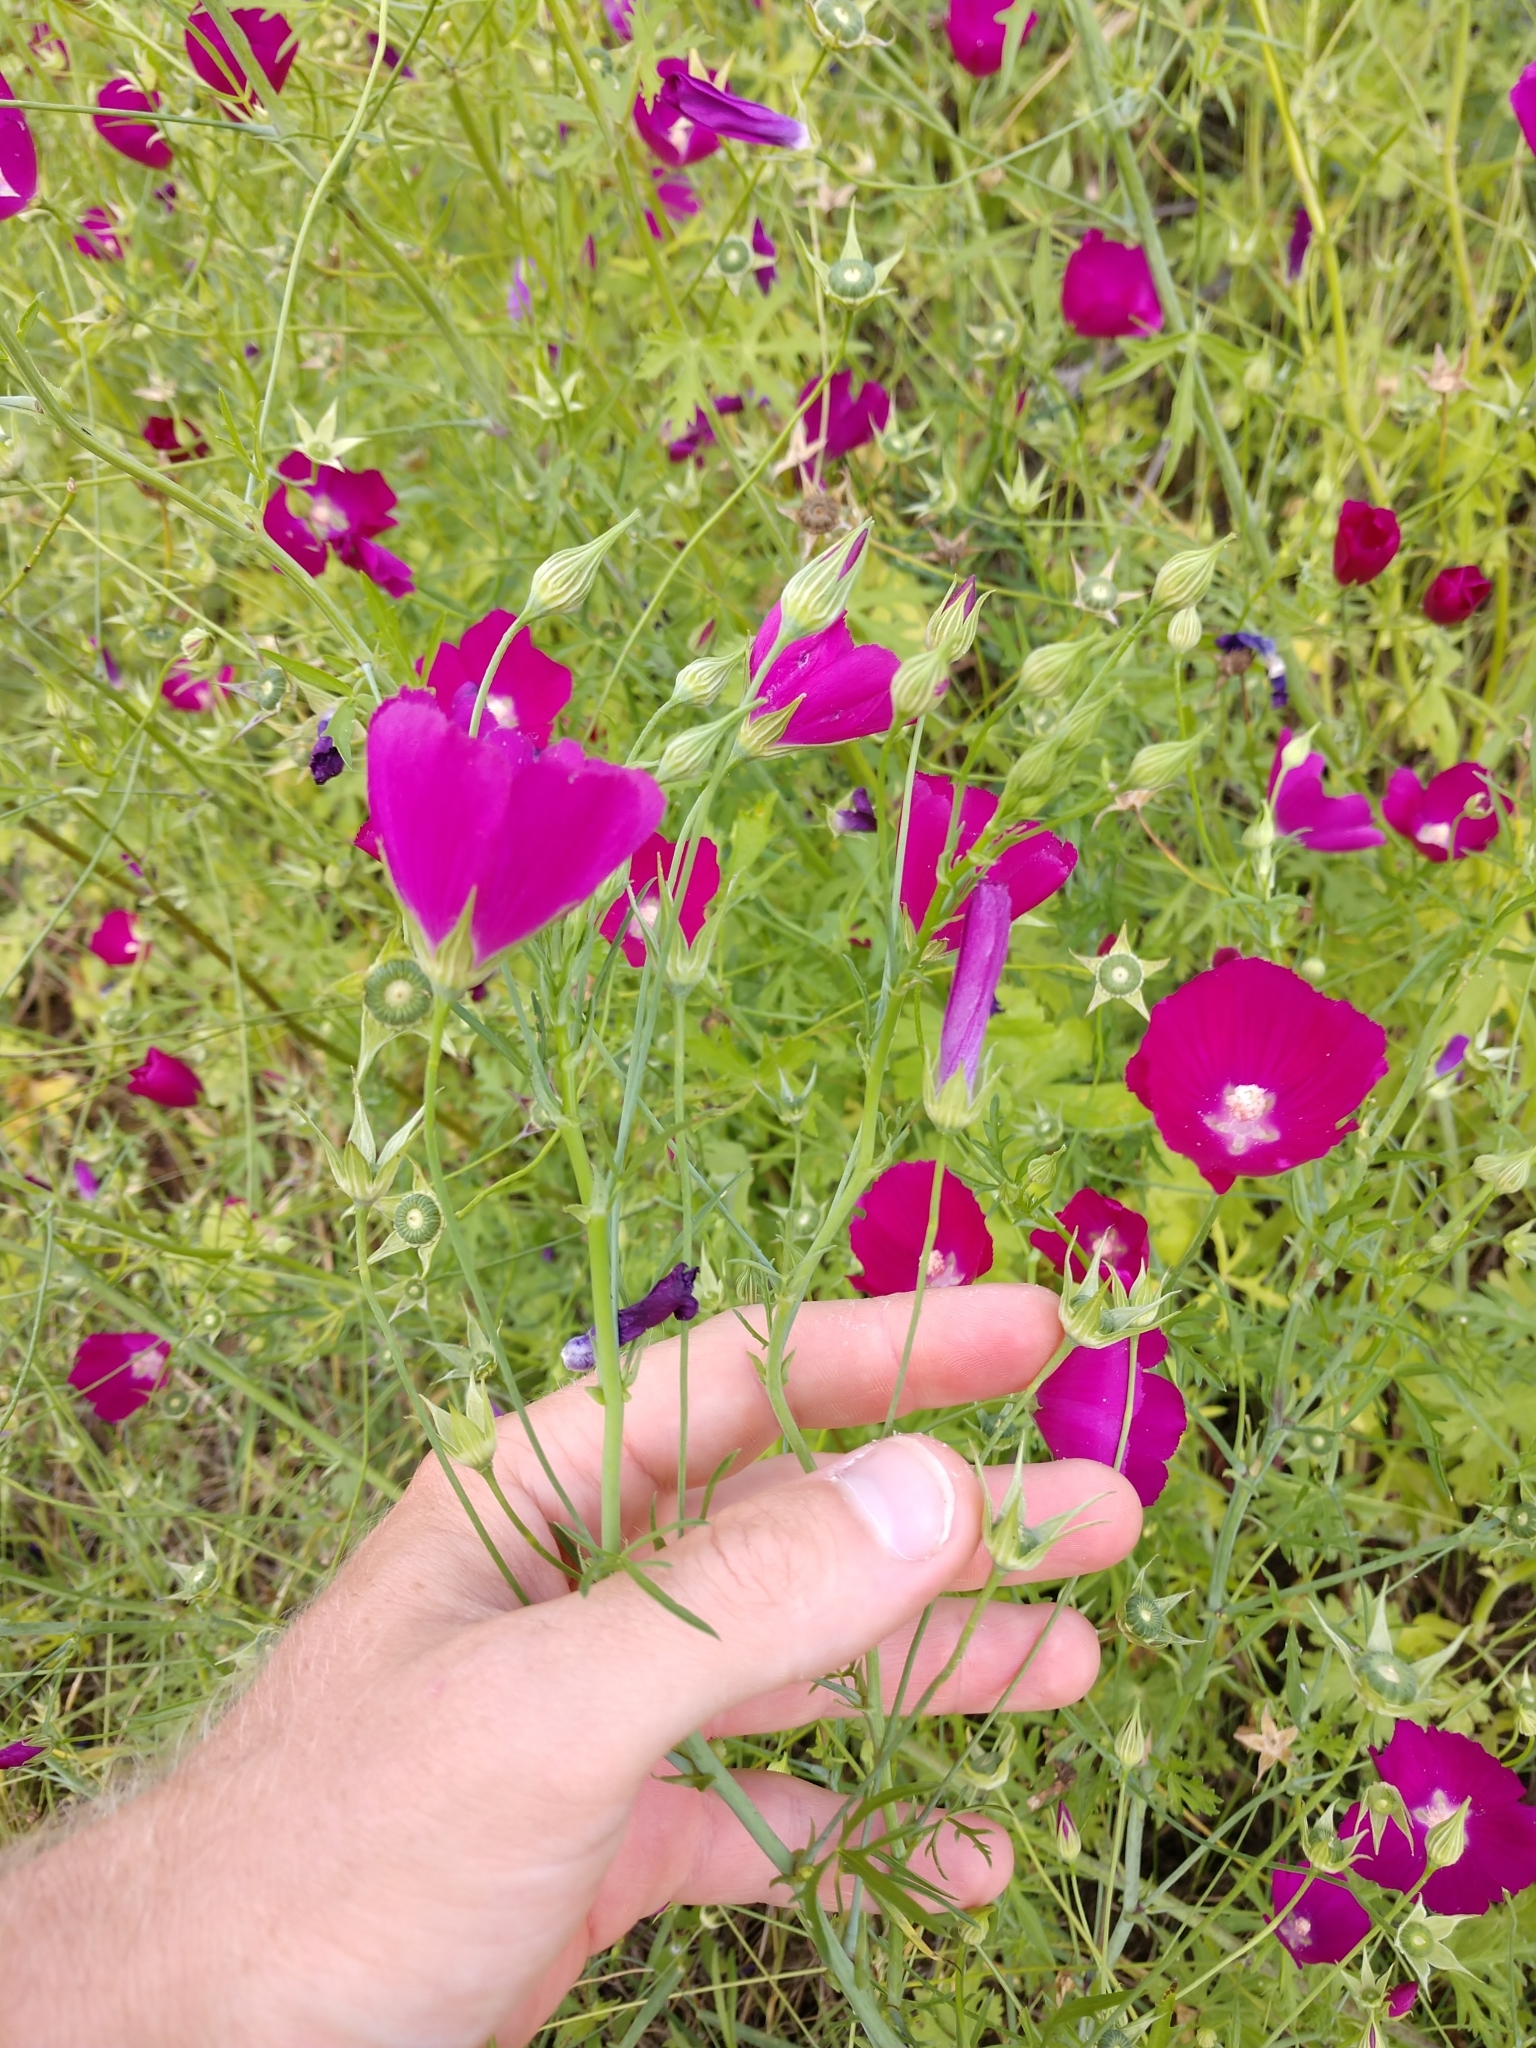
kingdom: Plantae
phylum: Tracheophyta
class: Magnoliopsida
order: Malvales
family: Malvaceae
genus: Callirhoe
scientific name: Callirhoe leiocarpa
